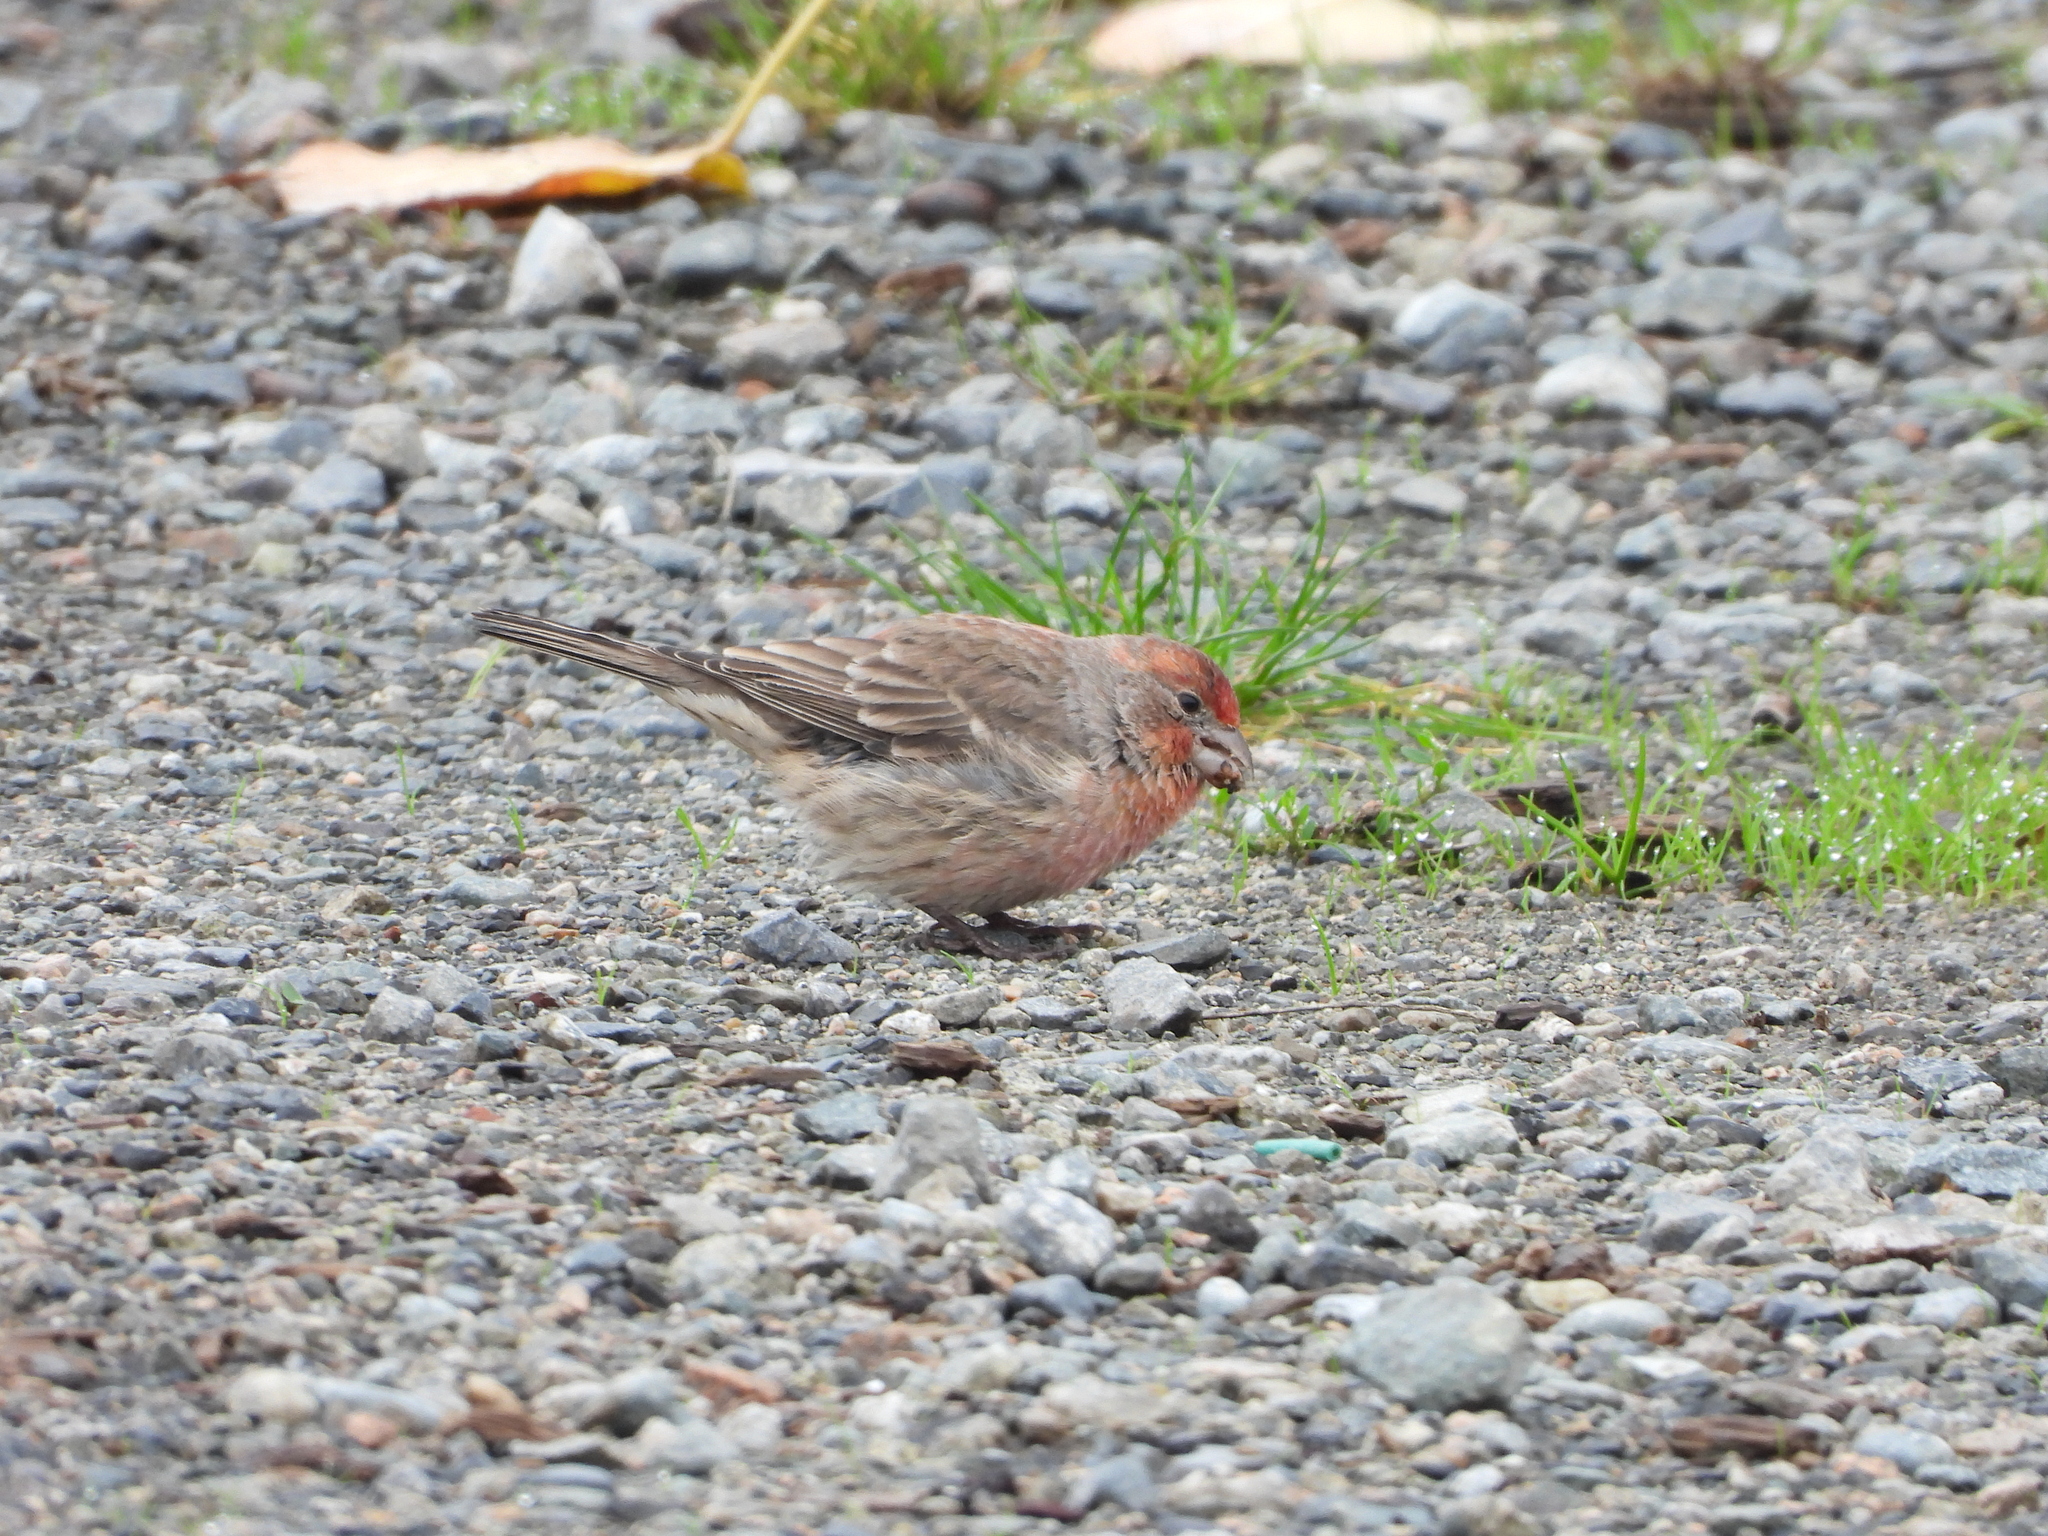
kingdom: Animalia
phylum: Chordata
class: Aves
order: Passeriformes
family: Fringillidae
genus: Haemorhous
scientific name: Haemorhous mexicanus
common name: House finch
